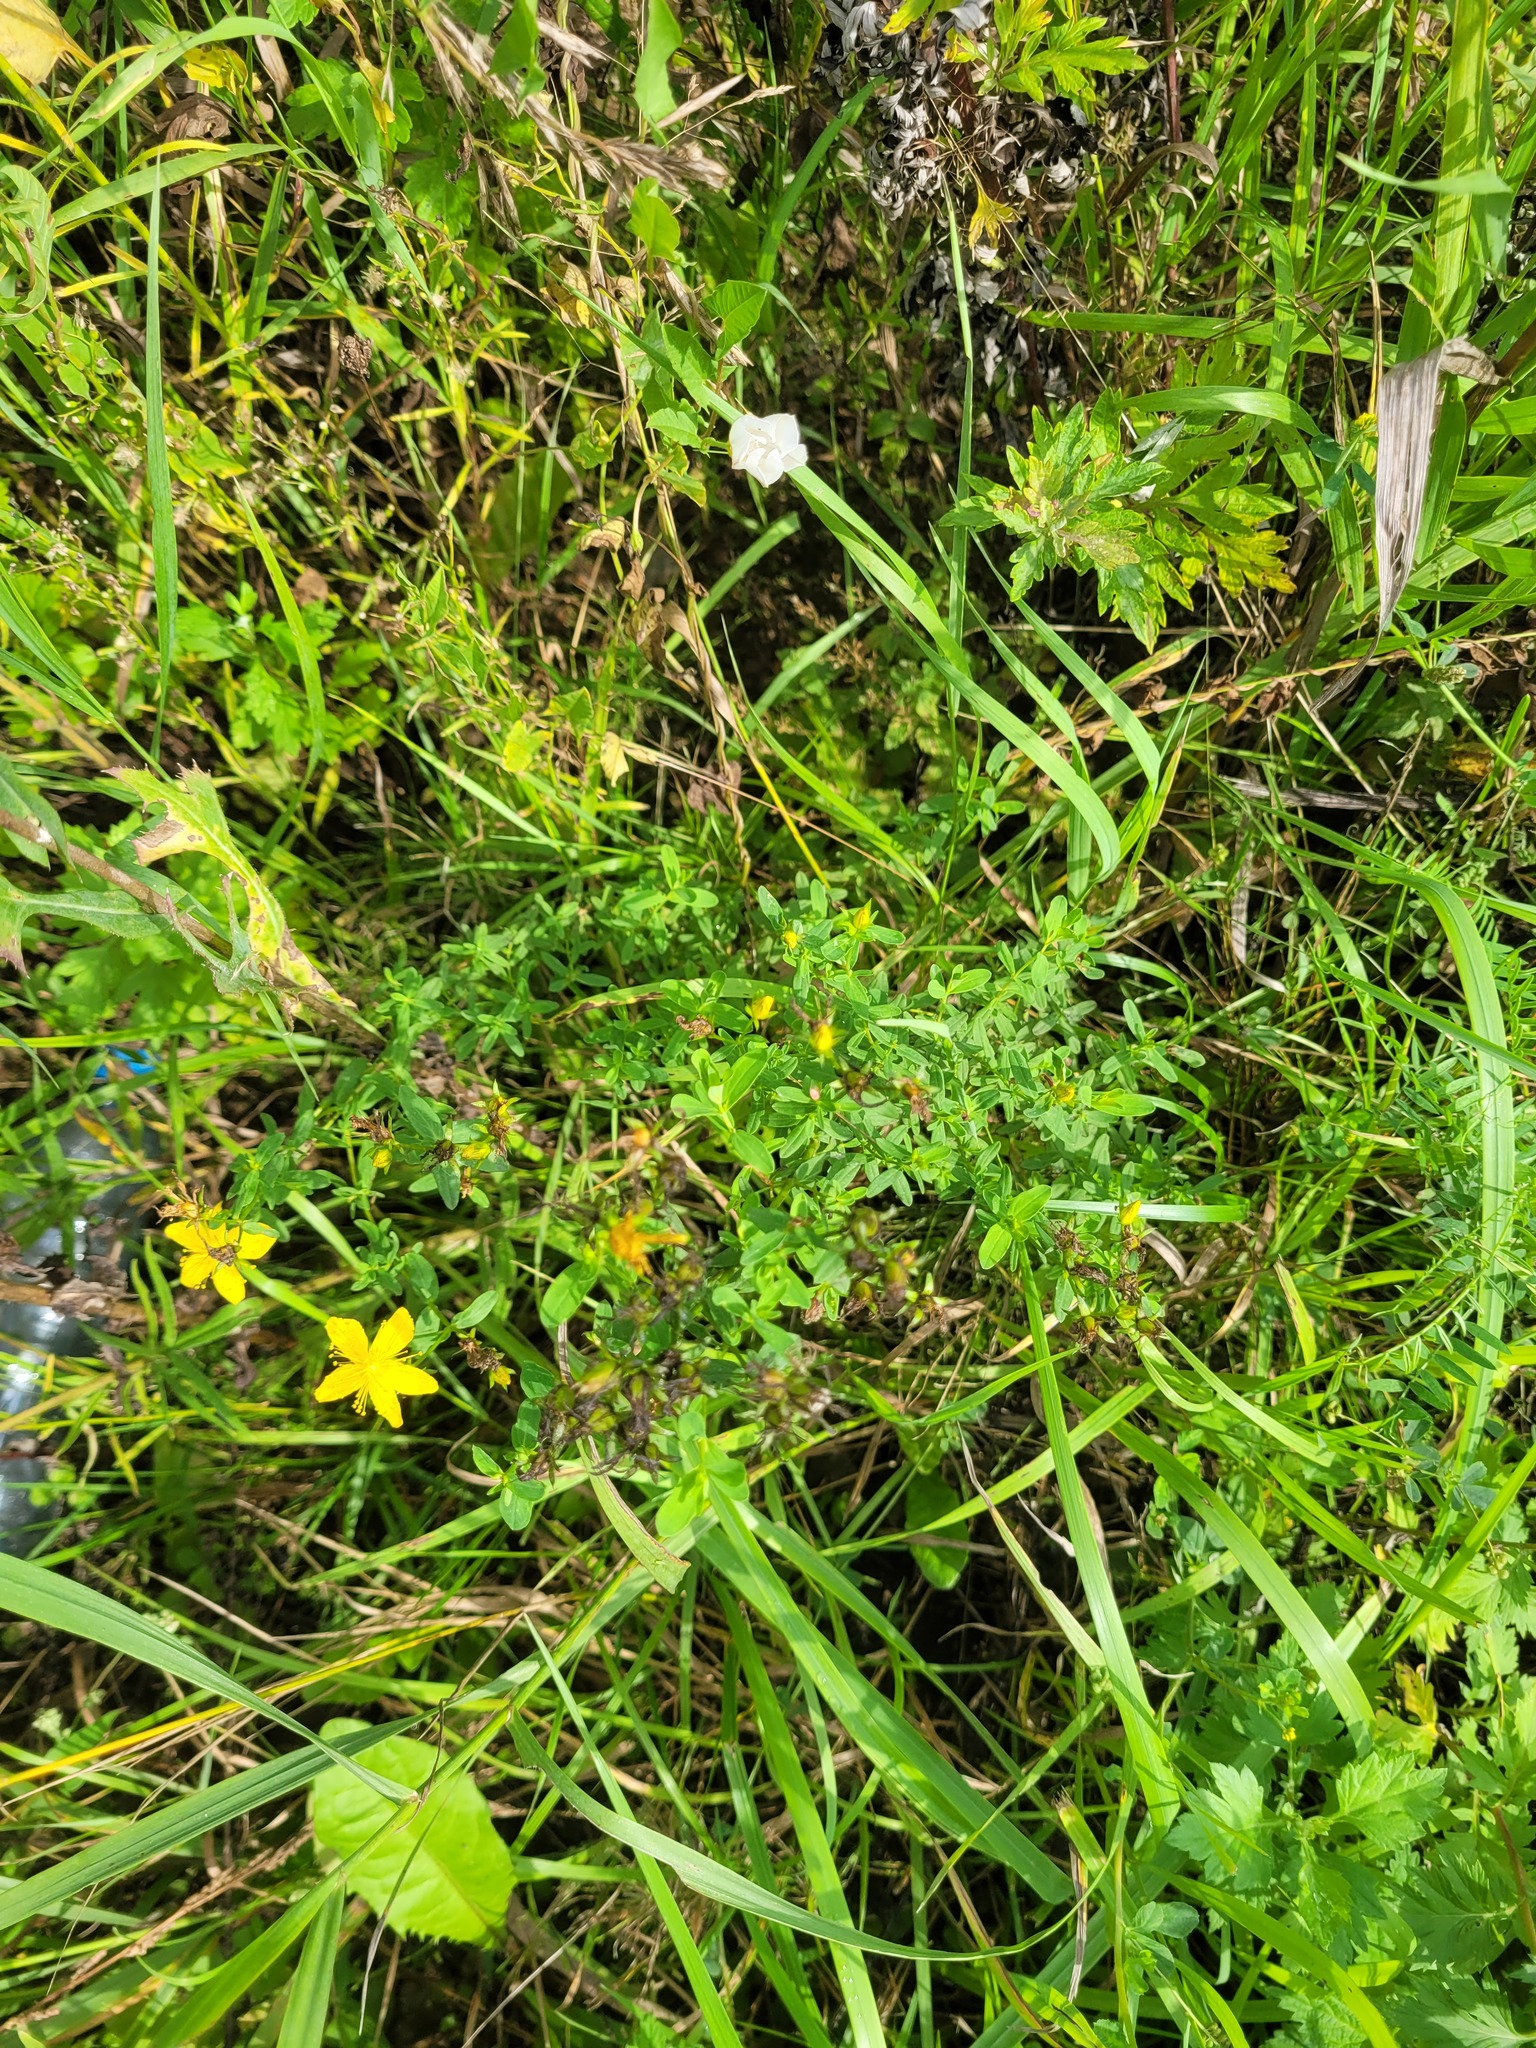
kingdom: Plantae
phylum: Tracheophyta
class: Magnoliopsida
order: Malpighiales
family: Hypericaceae
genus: Hypericum
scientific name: Hypericum perforatum
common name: Common st. johnswort
